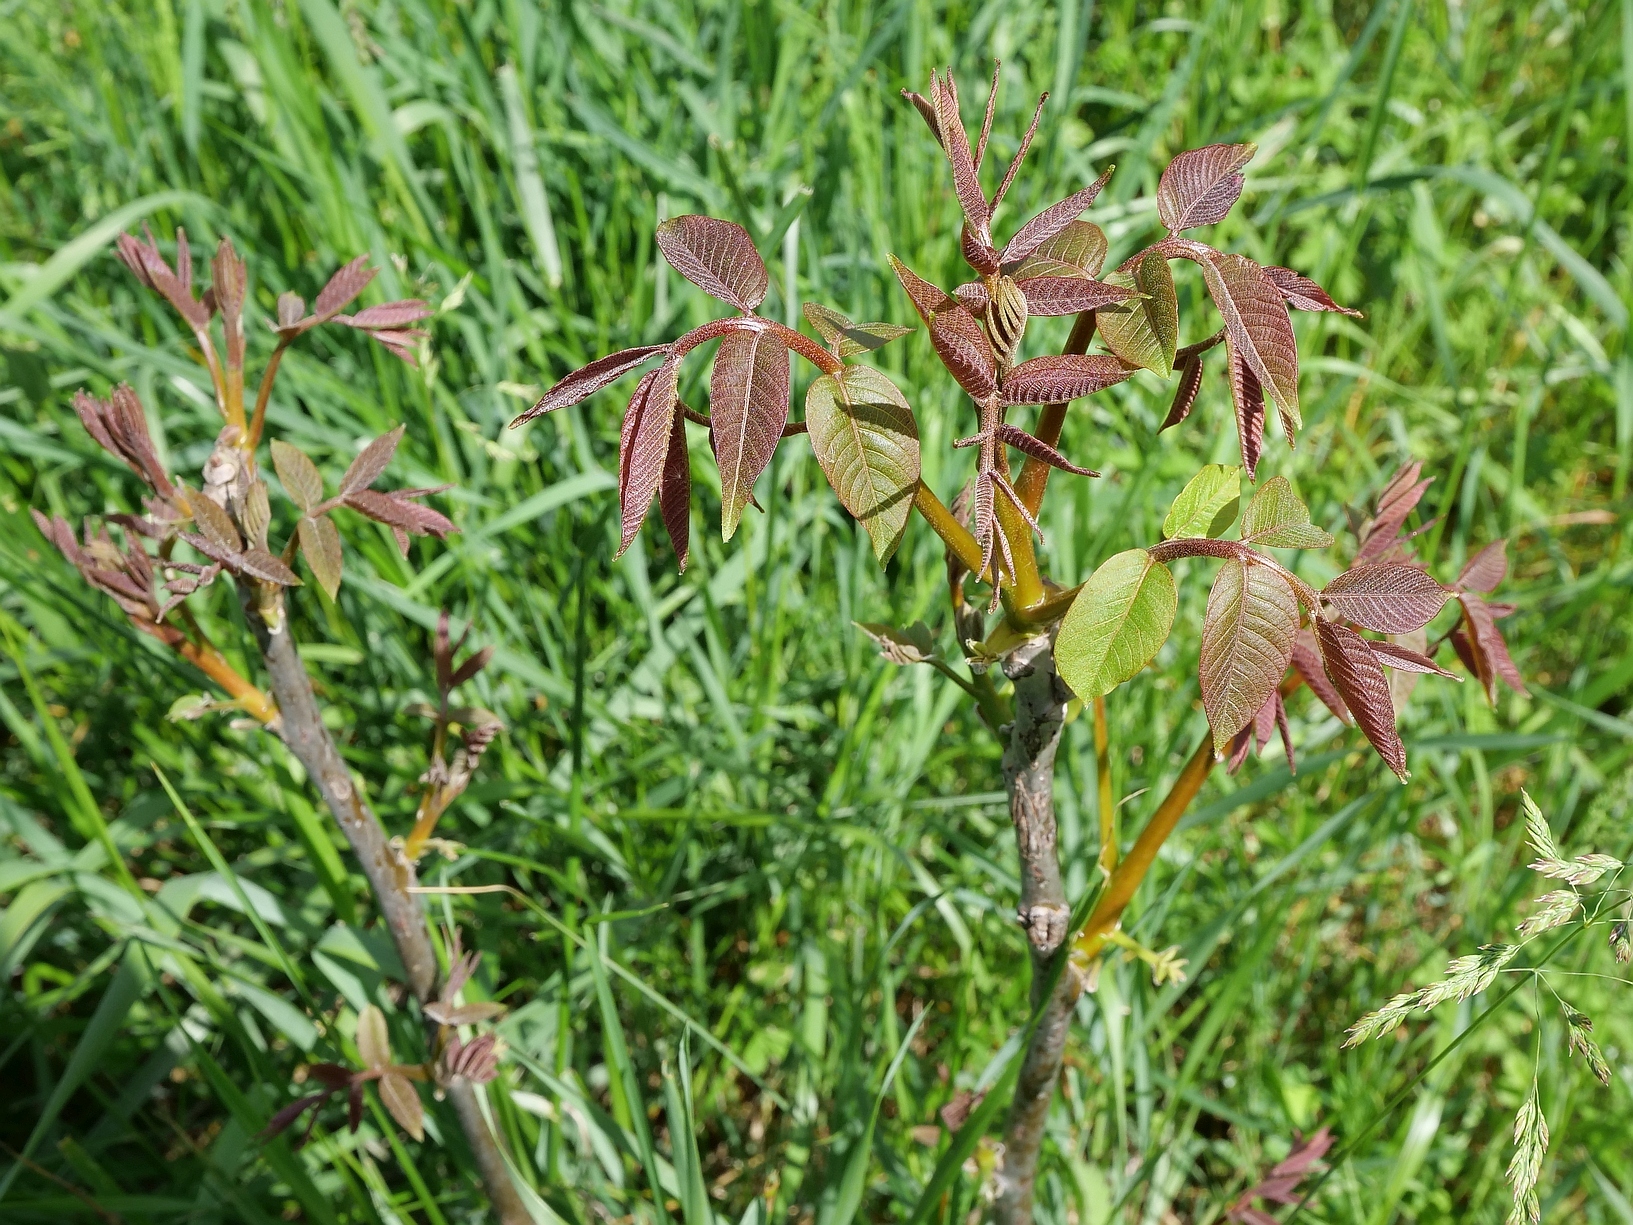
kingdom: Plantae
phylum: Tracheophyta
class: Magnoliopsida
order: Fagales
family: Juglandaceae
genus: Juglans
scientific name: Juglans regia
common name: Walnut
